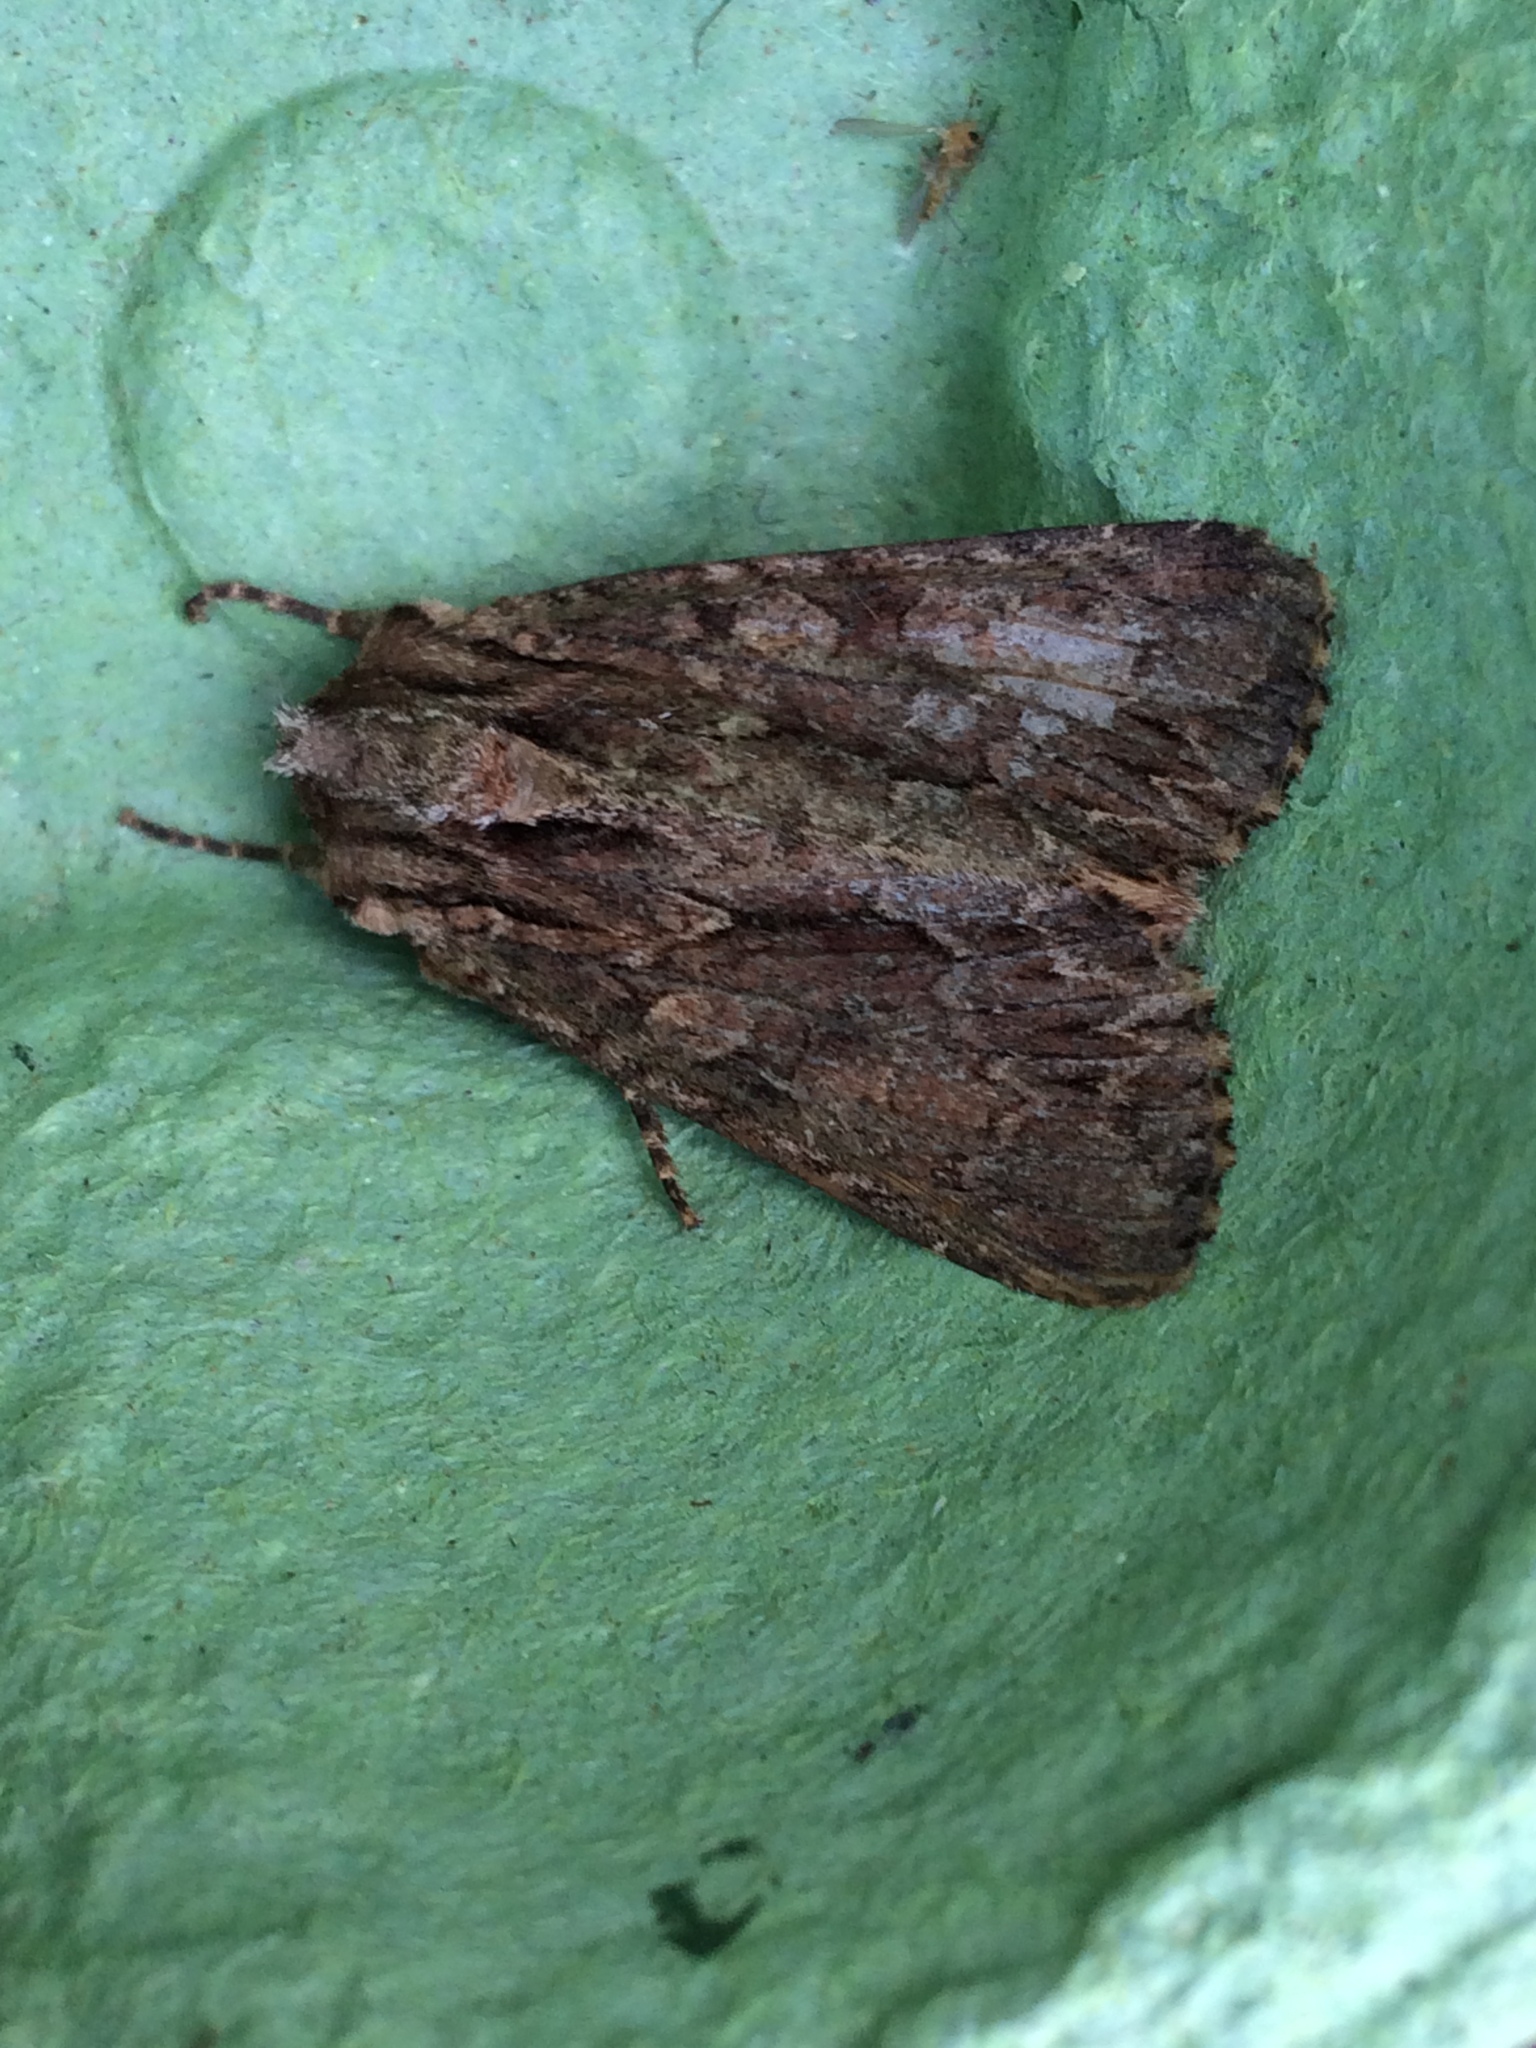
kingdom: Animalia
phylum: Arthropoda
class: Insecta
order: Lepidoptera
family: Noctuidae
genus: Apamea
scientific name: Apamea monoglypha
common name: Dark arches
